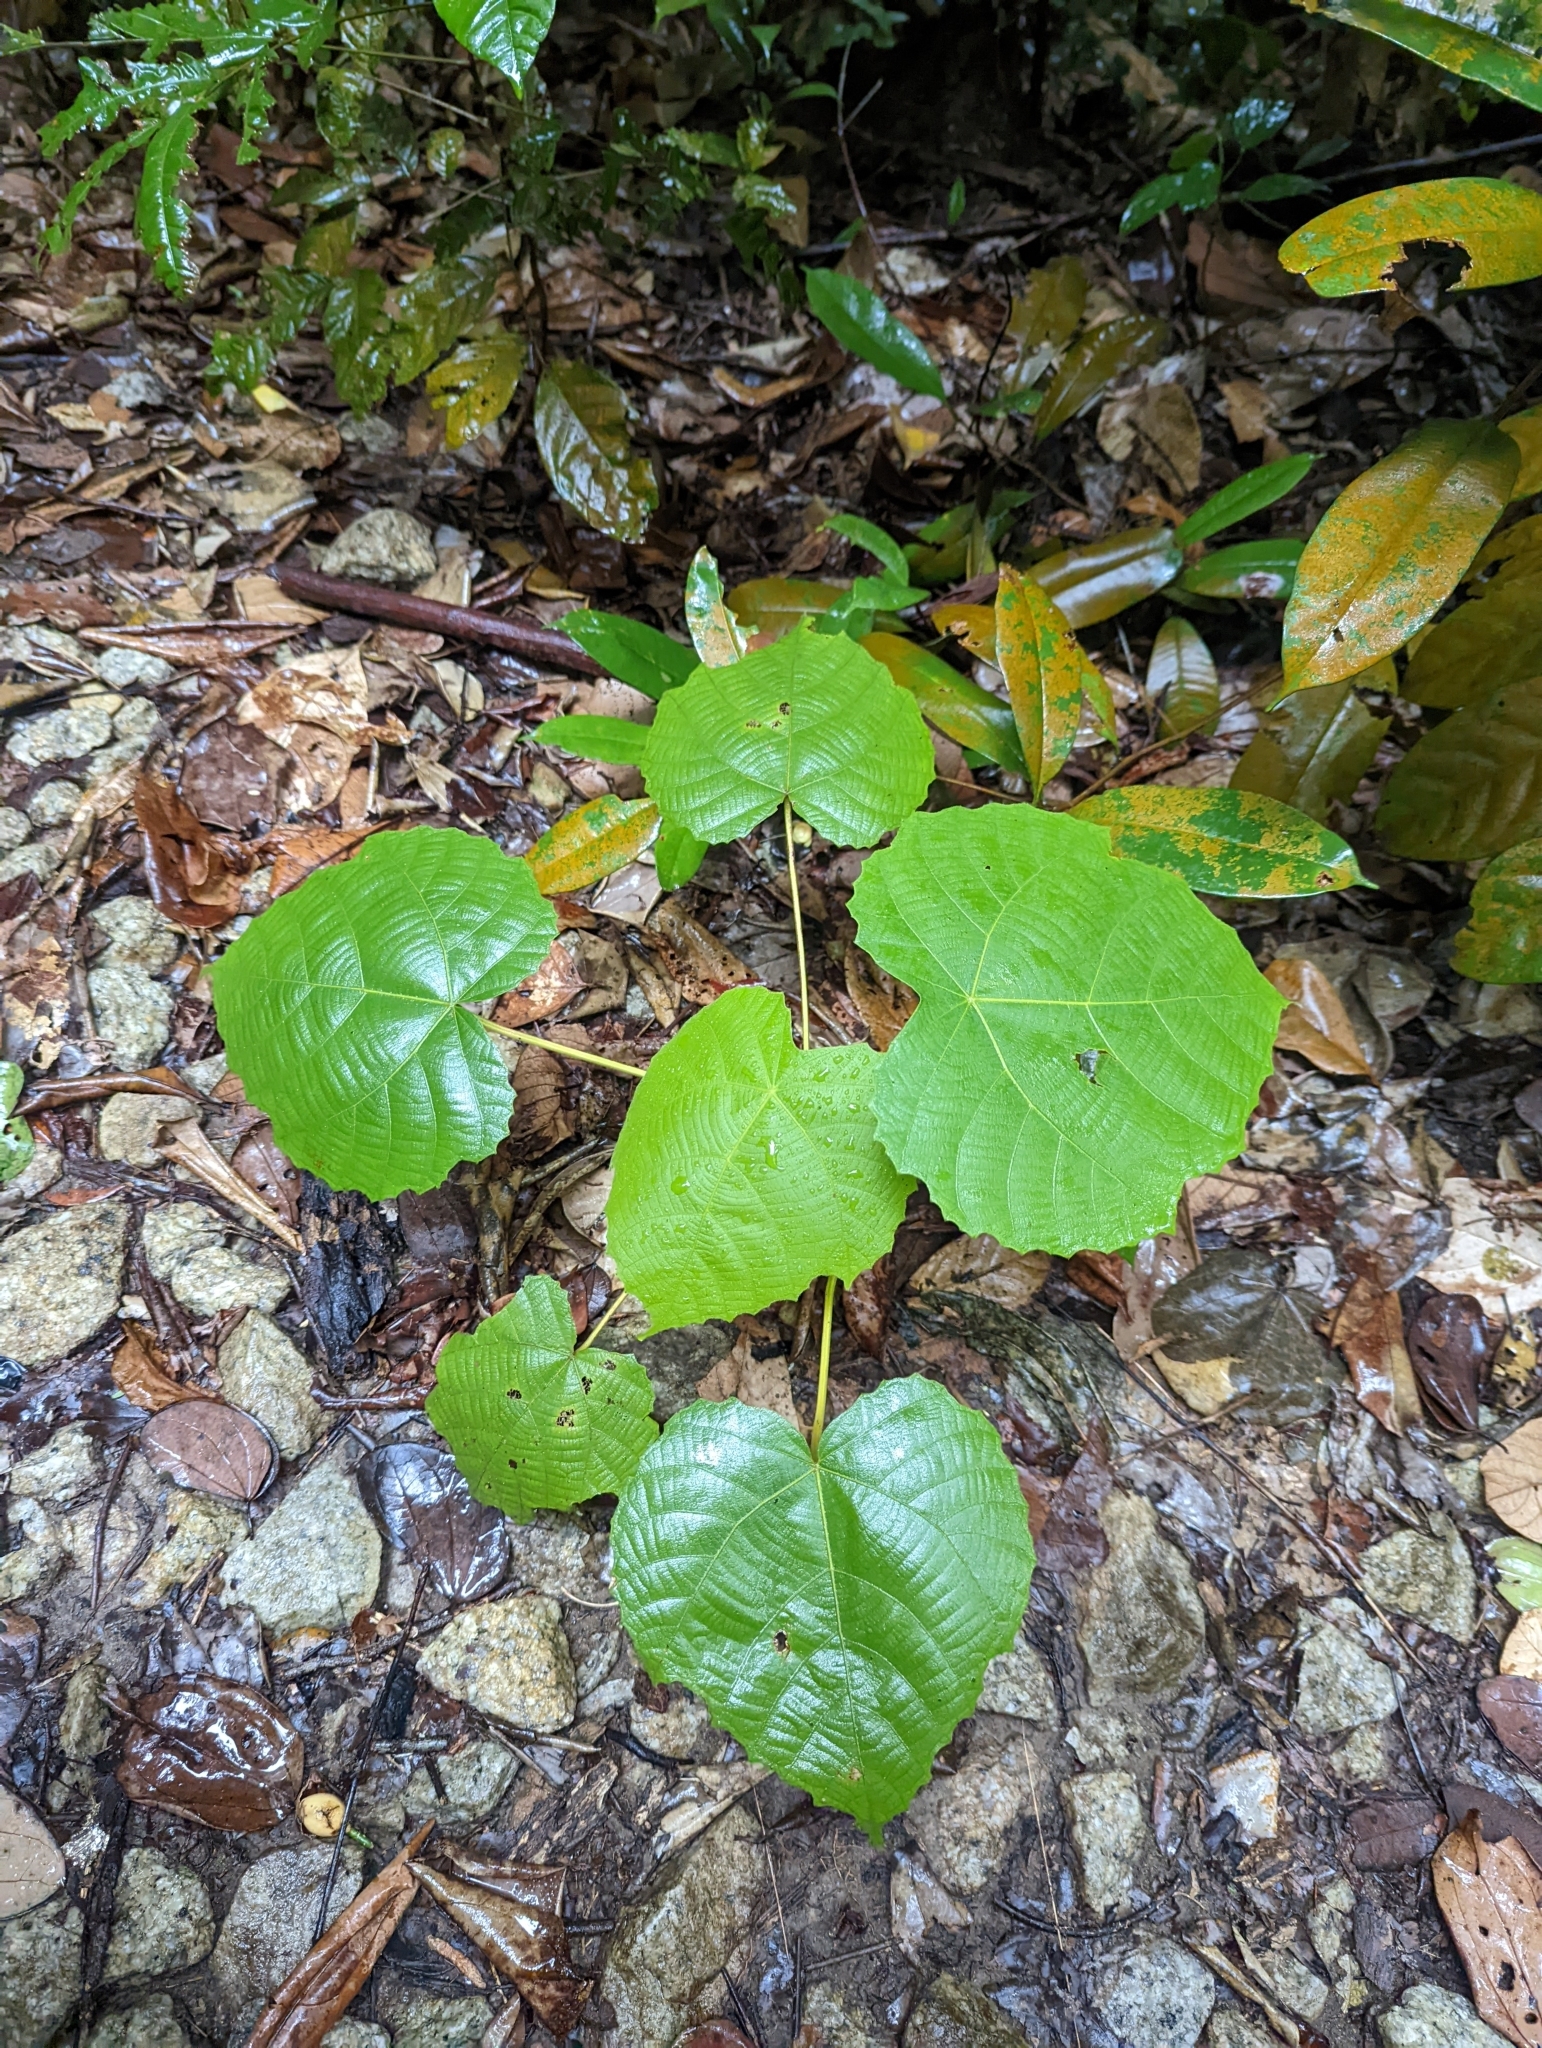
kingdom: Plantae
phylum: Tracheophyta
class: Magnoliopsida
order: Malpighiales
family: Euphorbiaceae
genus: Macaranga
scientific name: Macaranga gigantea
